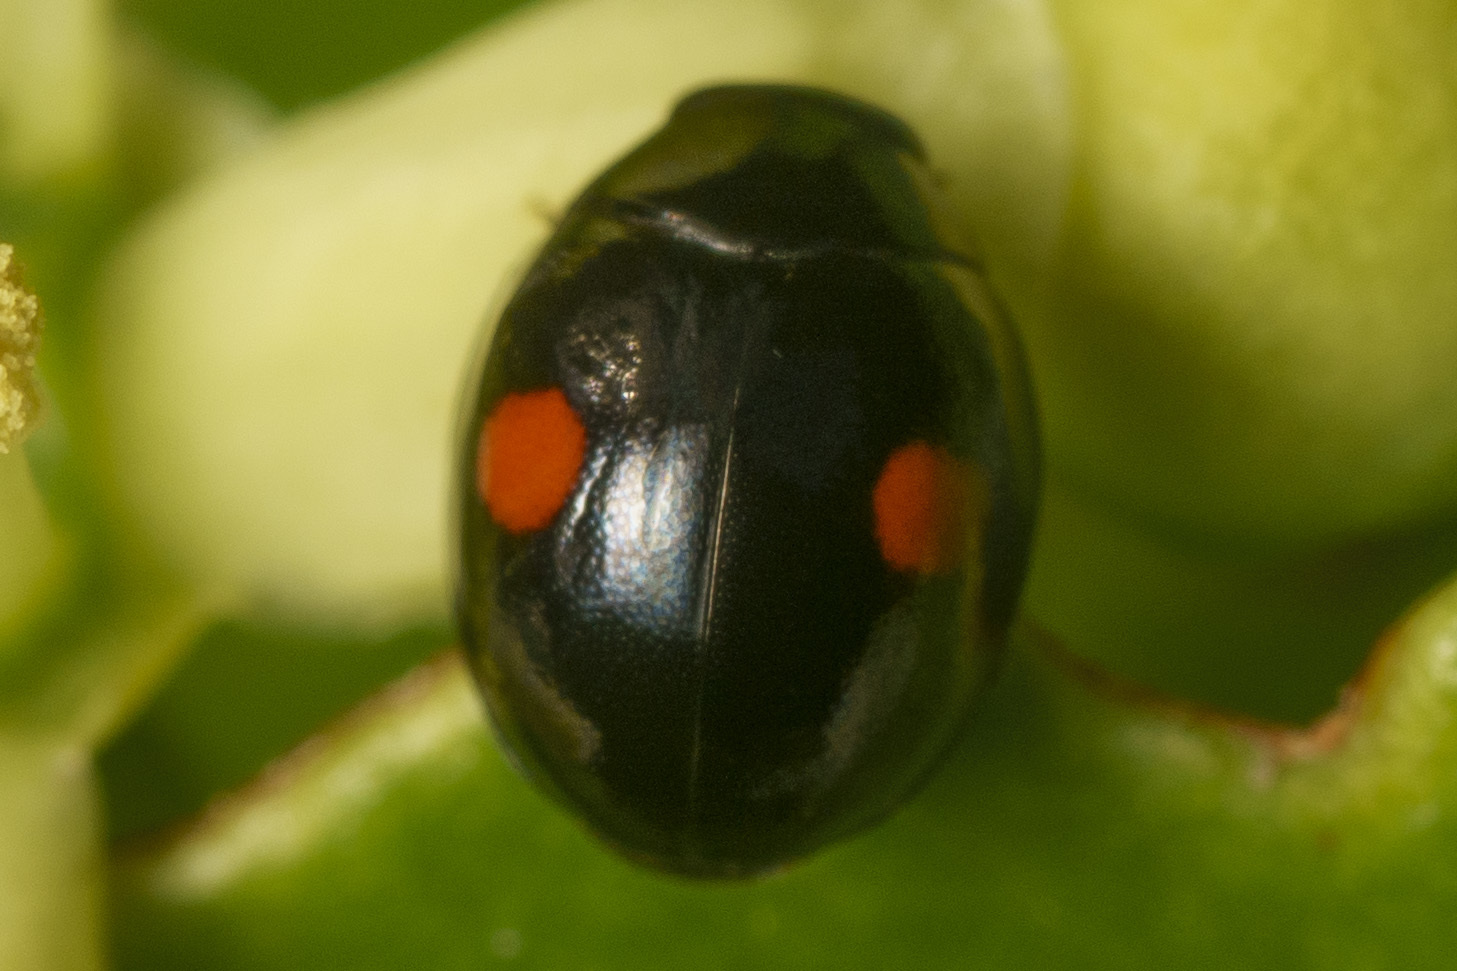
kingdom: Animalia
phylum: Arthropoda
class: Insecta
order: Coleoptera
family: Coccinellidae
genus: Hyperaspis
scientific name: Hyperaspis
